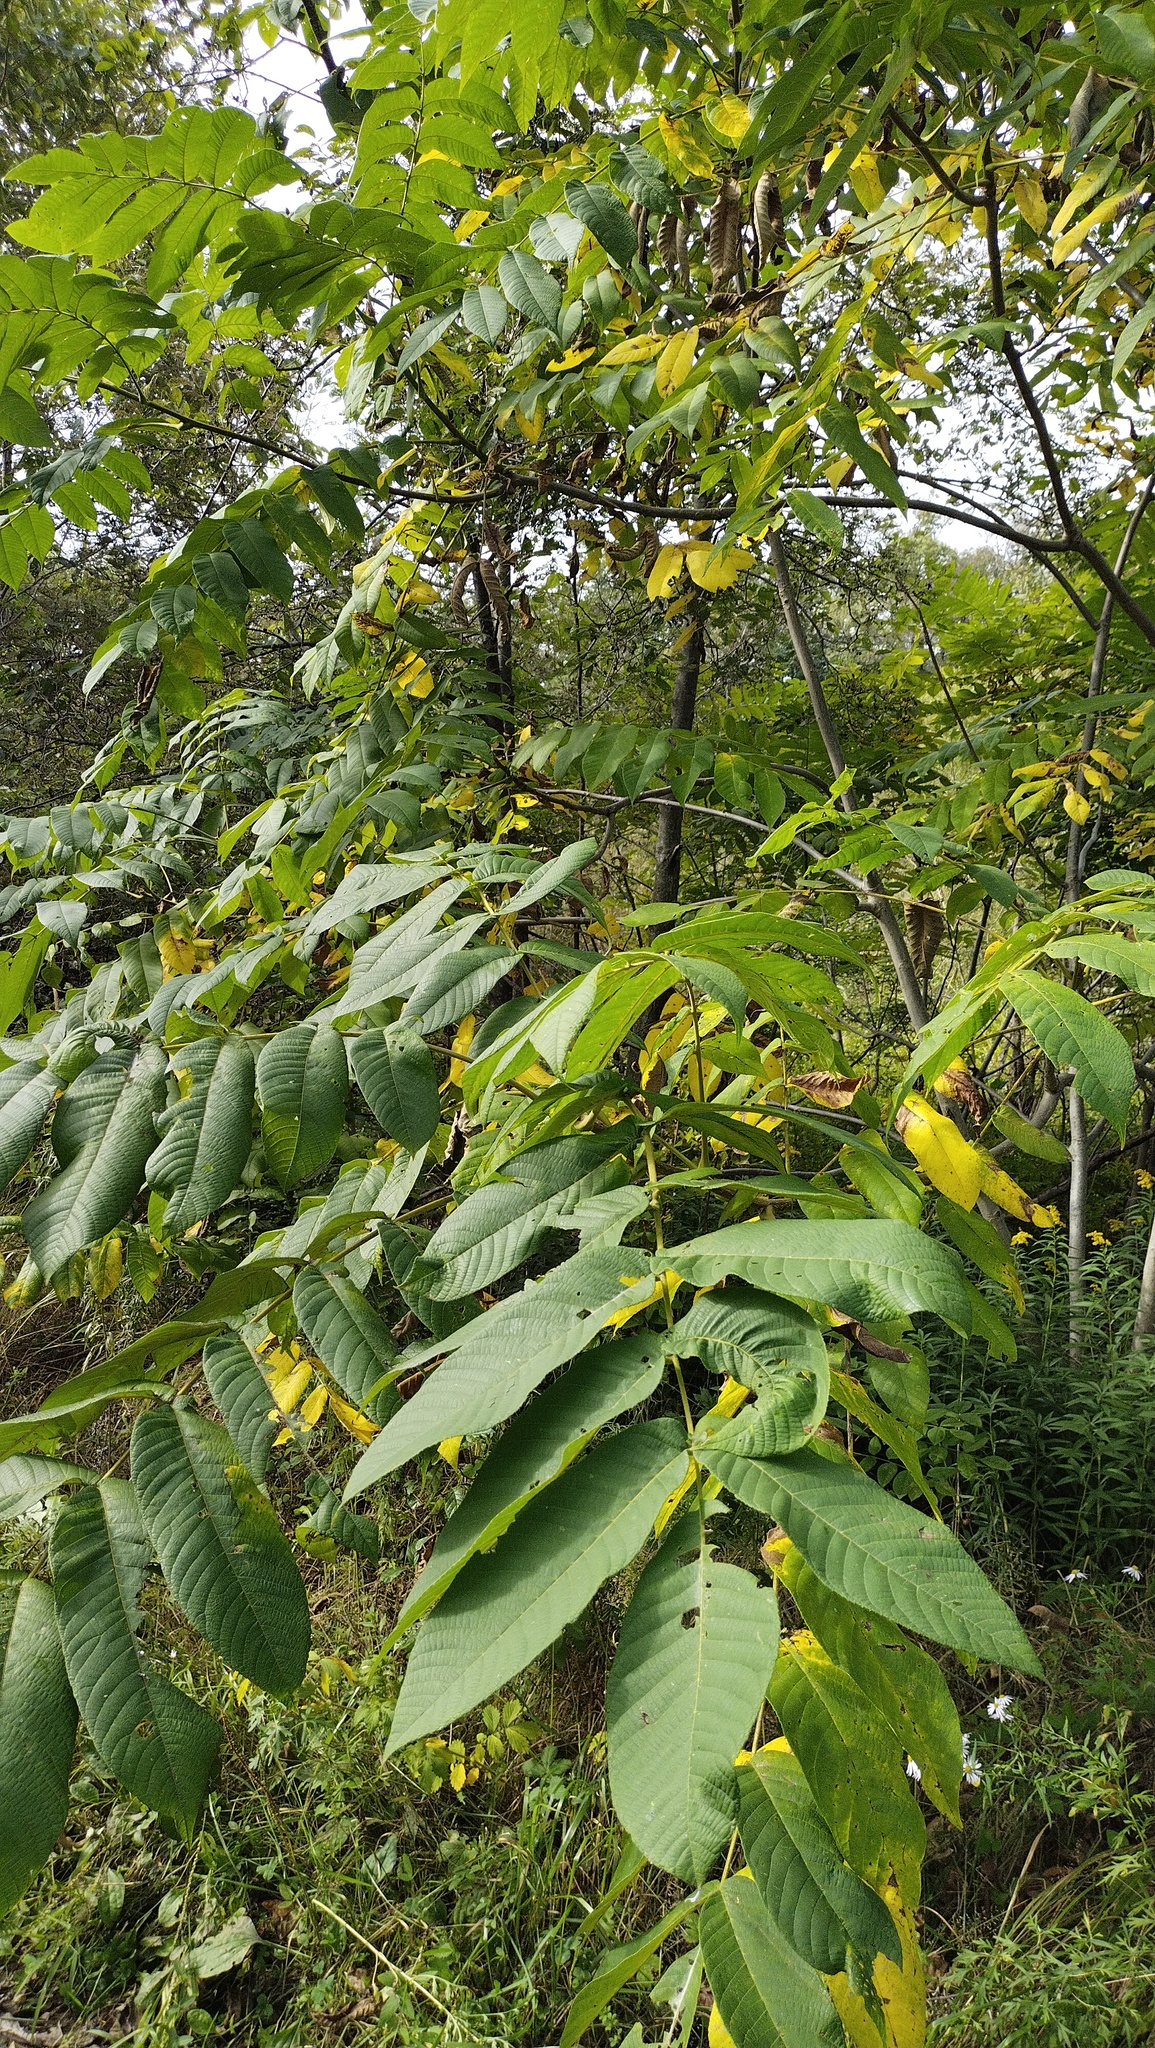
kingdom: Plantae
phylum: Tracheophyta
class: Magnoliopsida
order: Fagales
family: Juglandaceae
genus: Juglans
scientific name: Juglans mandshurica
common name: Manchurian walnut
